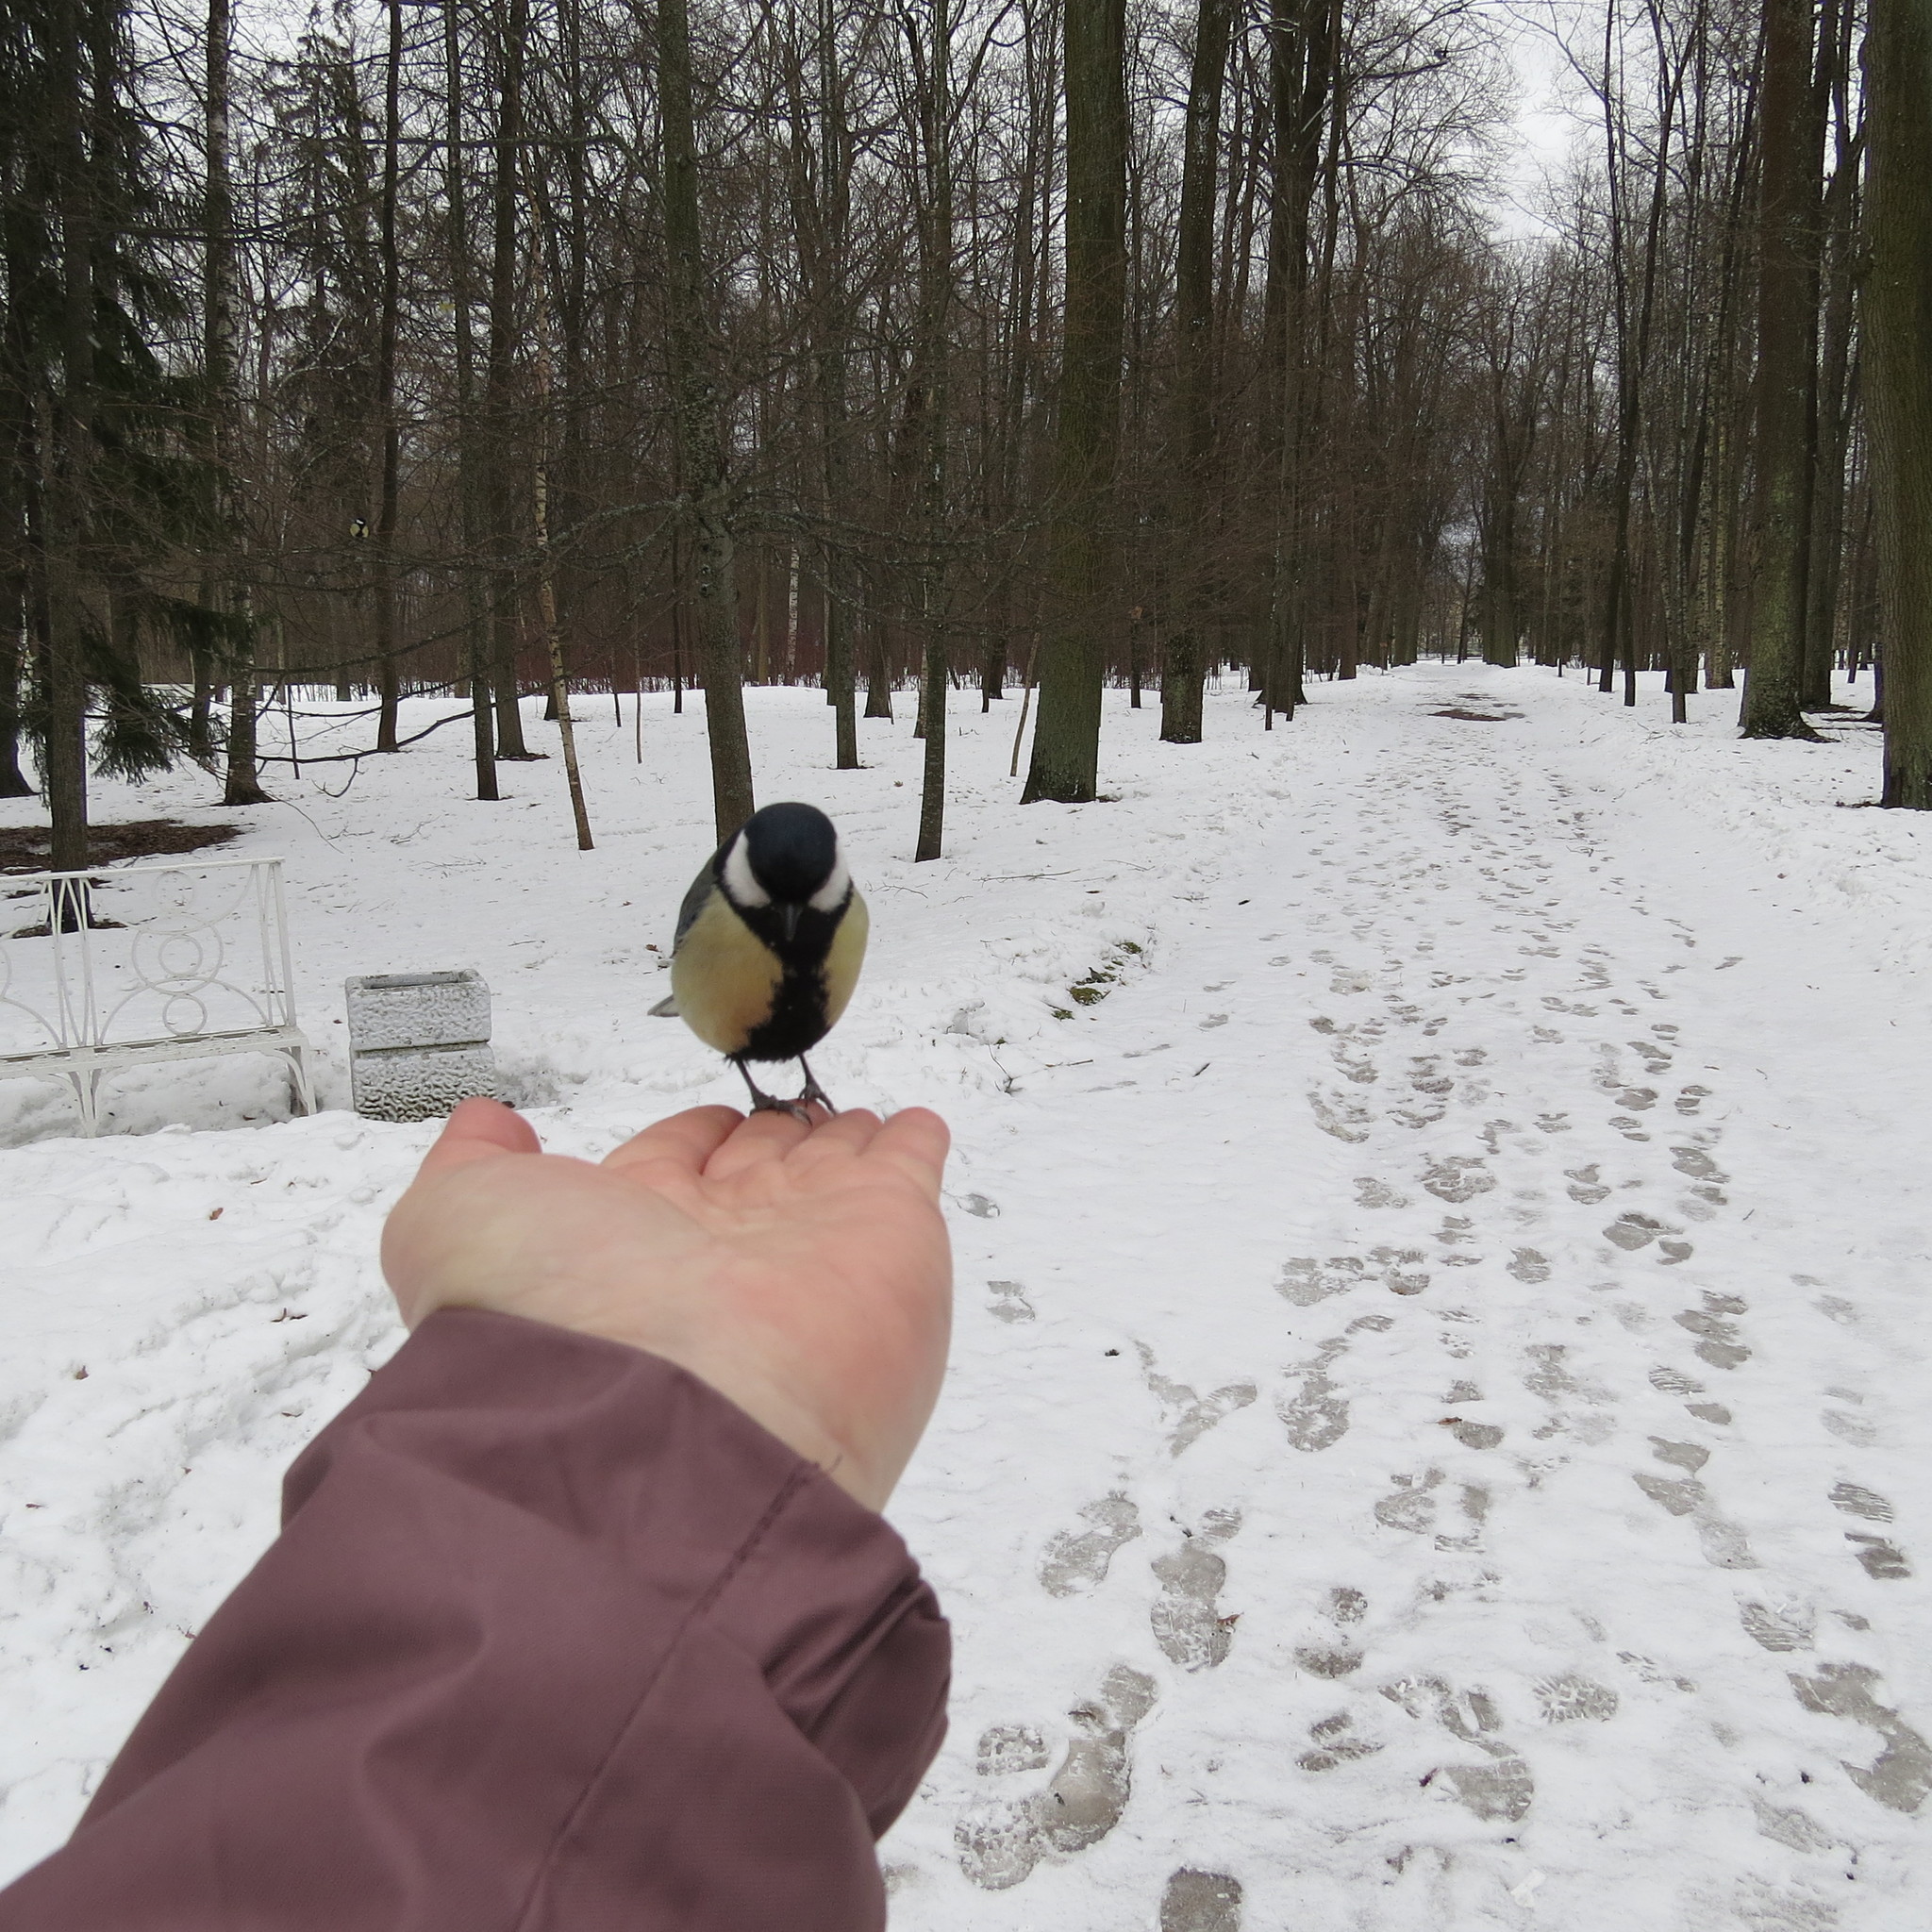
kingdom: Animalia
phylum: Chordata
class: Aves
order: Passeriformes
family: Paridae
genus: Parus
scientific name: Parus major
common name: Great tit
